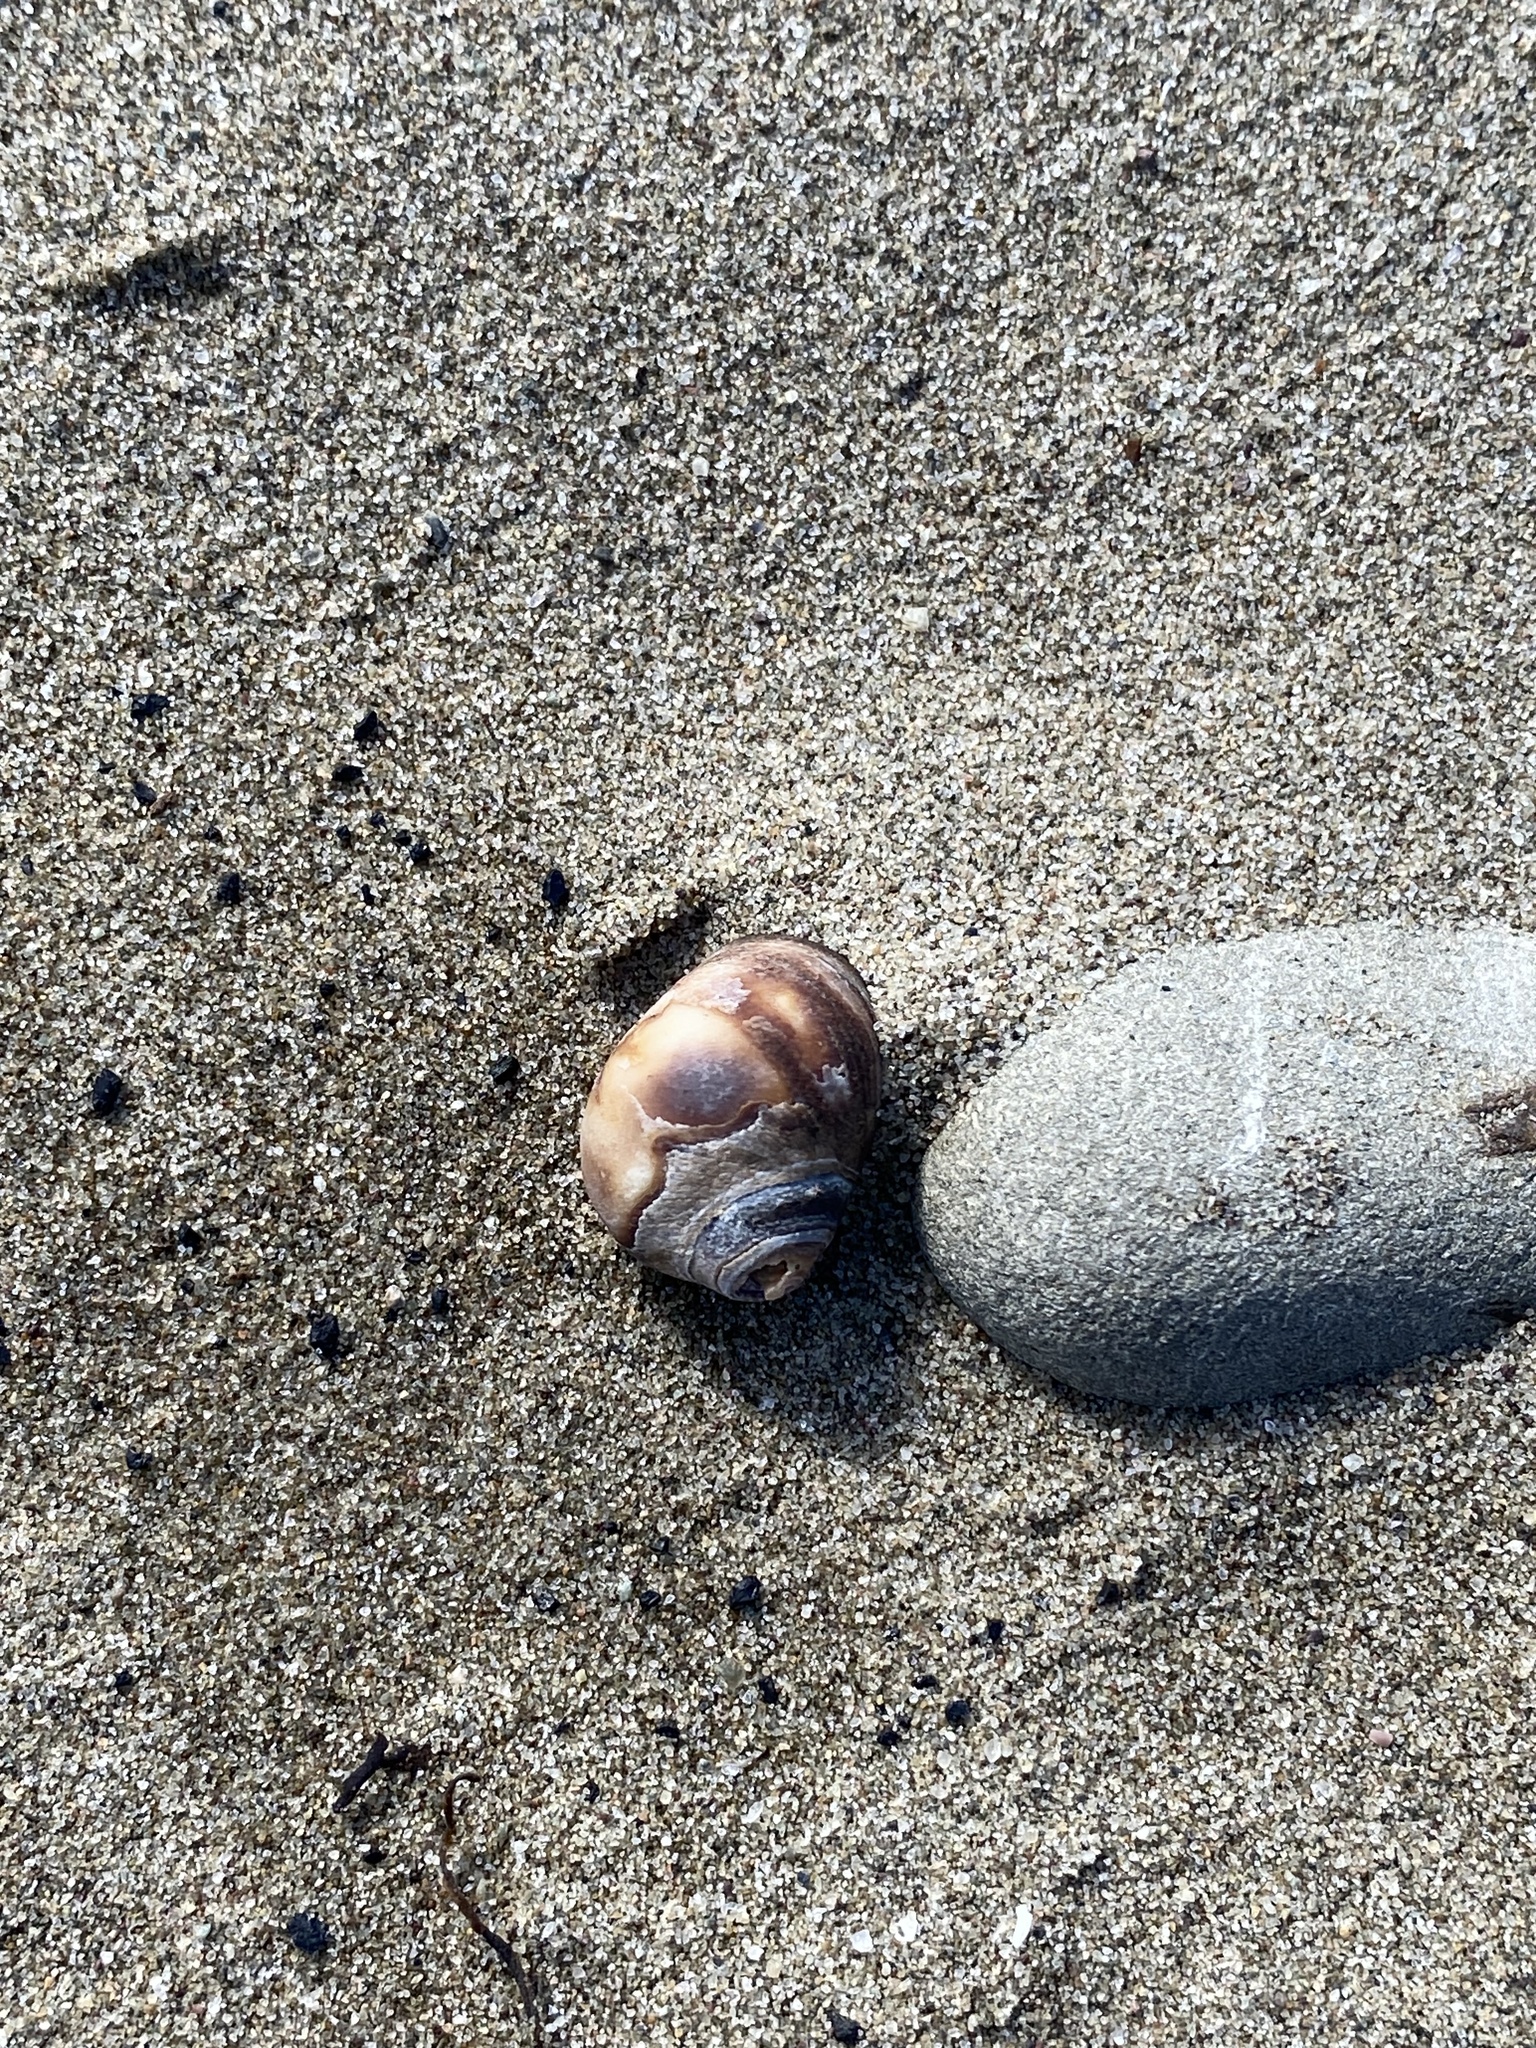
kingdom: Animalia
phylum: Mollusca
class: Gastropoda
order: Littorinimorpha
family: Littorinidae
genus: Littorina
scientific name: Littorina littorea
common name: Common periwinkle
